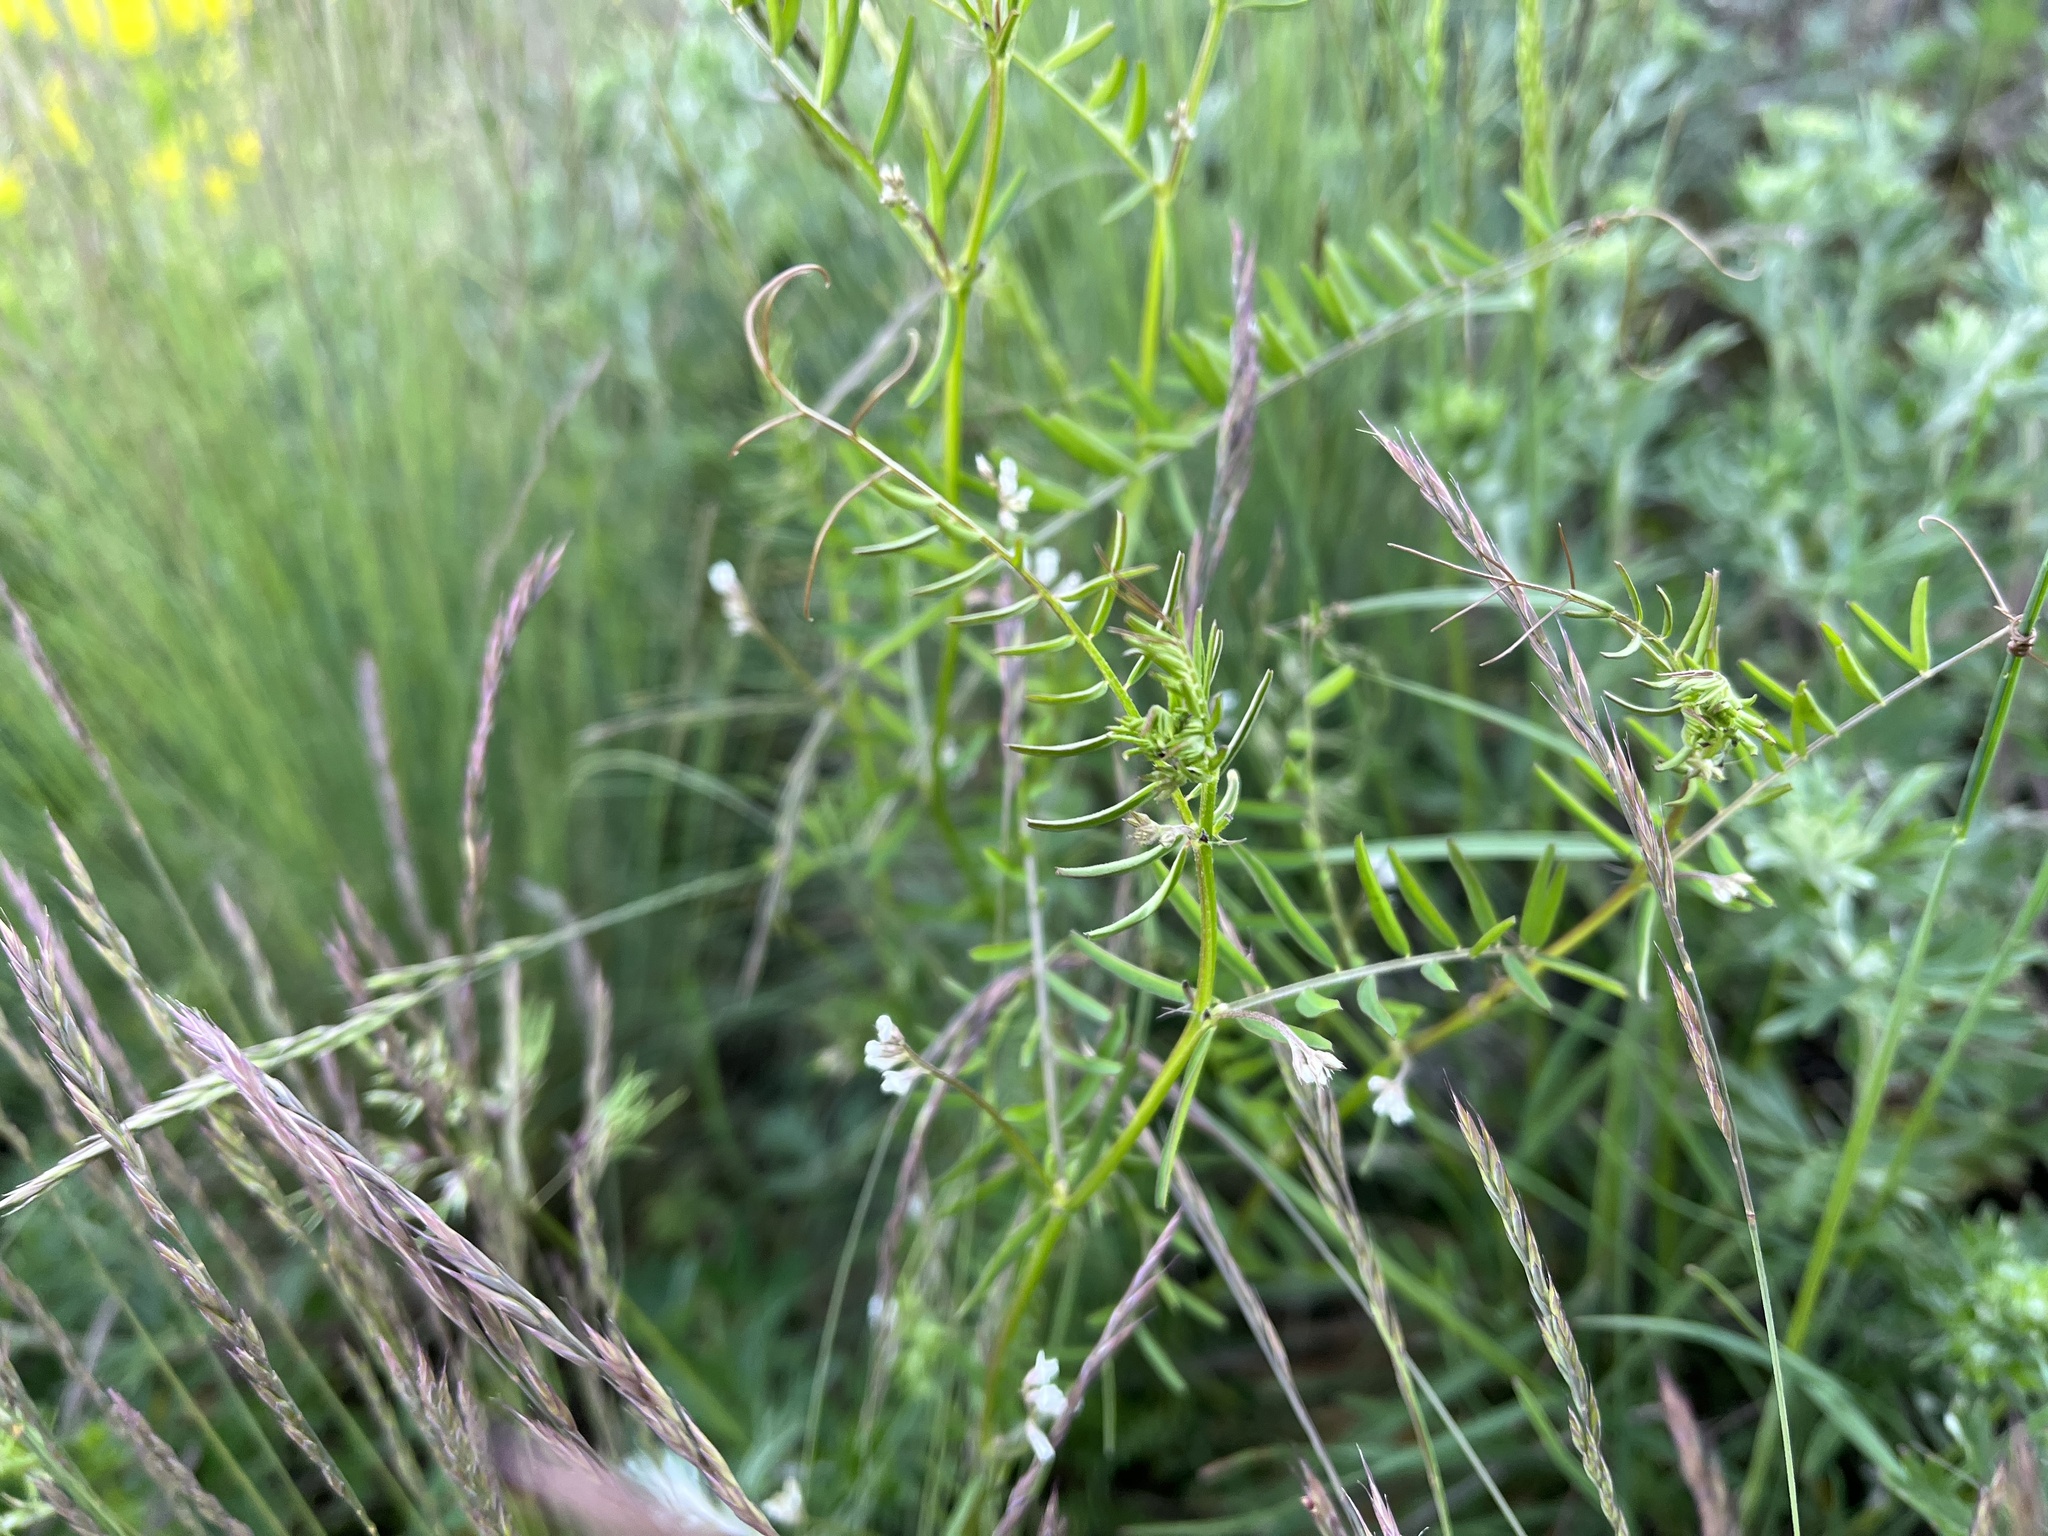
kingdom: Plantae
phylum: Tracheophyta
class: Magnoliopsida
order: Fabales
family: Fabaceae
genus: Vicia
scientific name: Vicia hirsuta
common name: Tiny vetch
